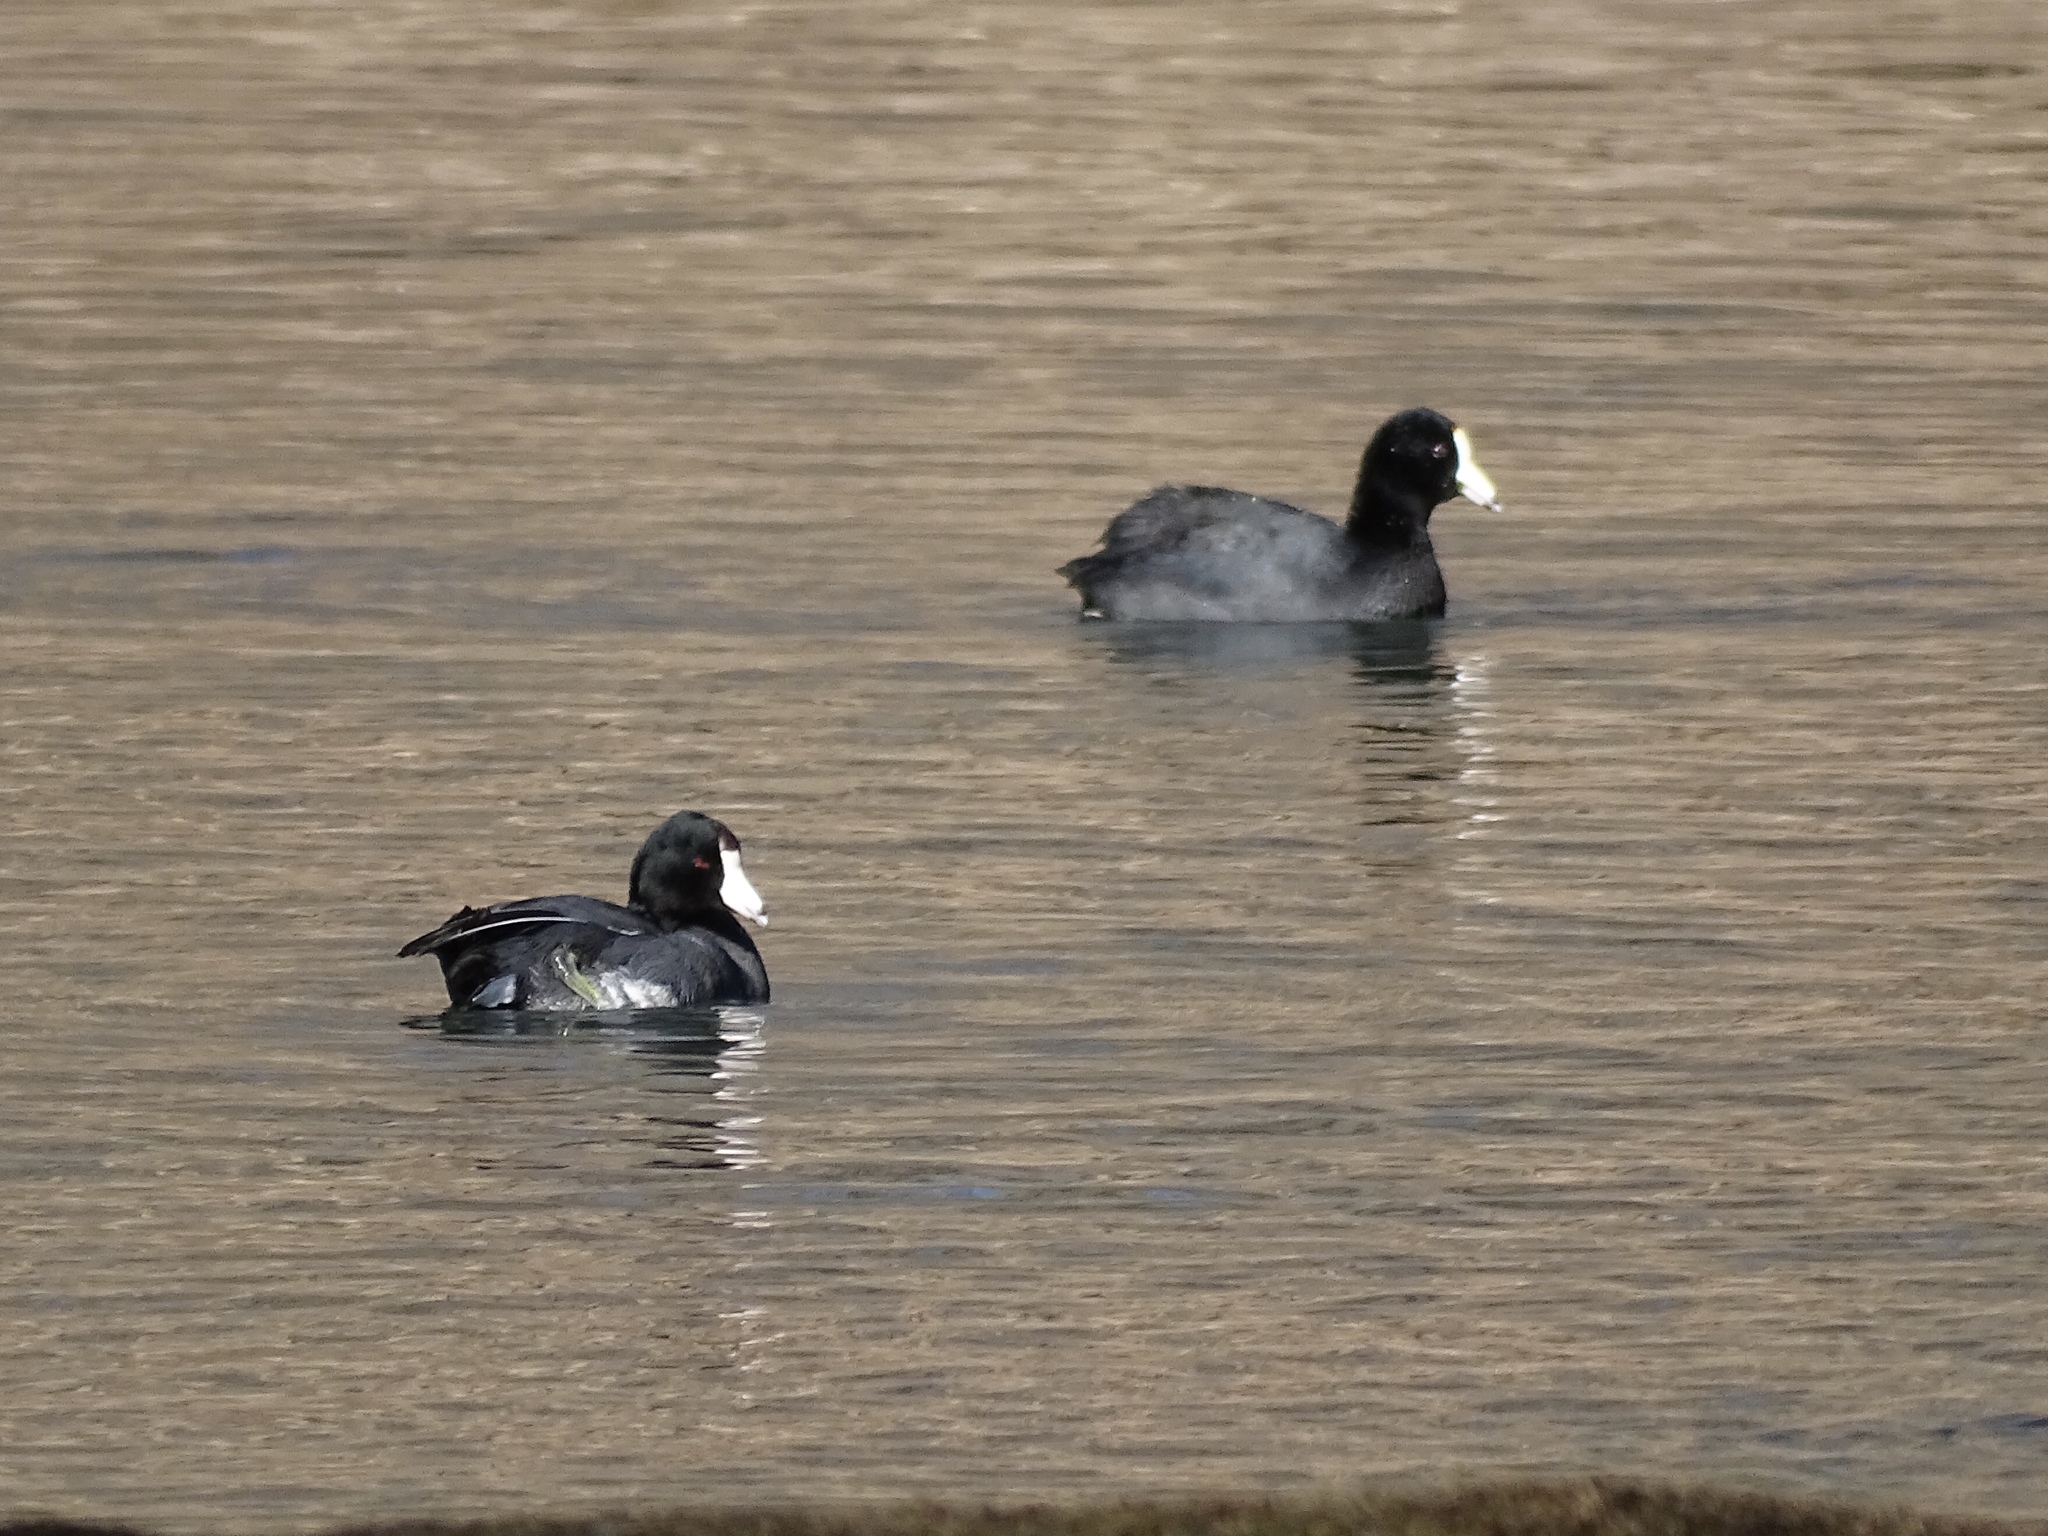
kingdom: Animalia
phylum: Chordata
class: Aves
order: Gruiformes
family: Rallidae
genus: Fulica
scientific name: Fulica americana
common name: American coot
